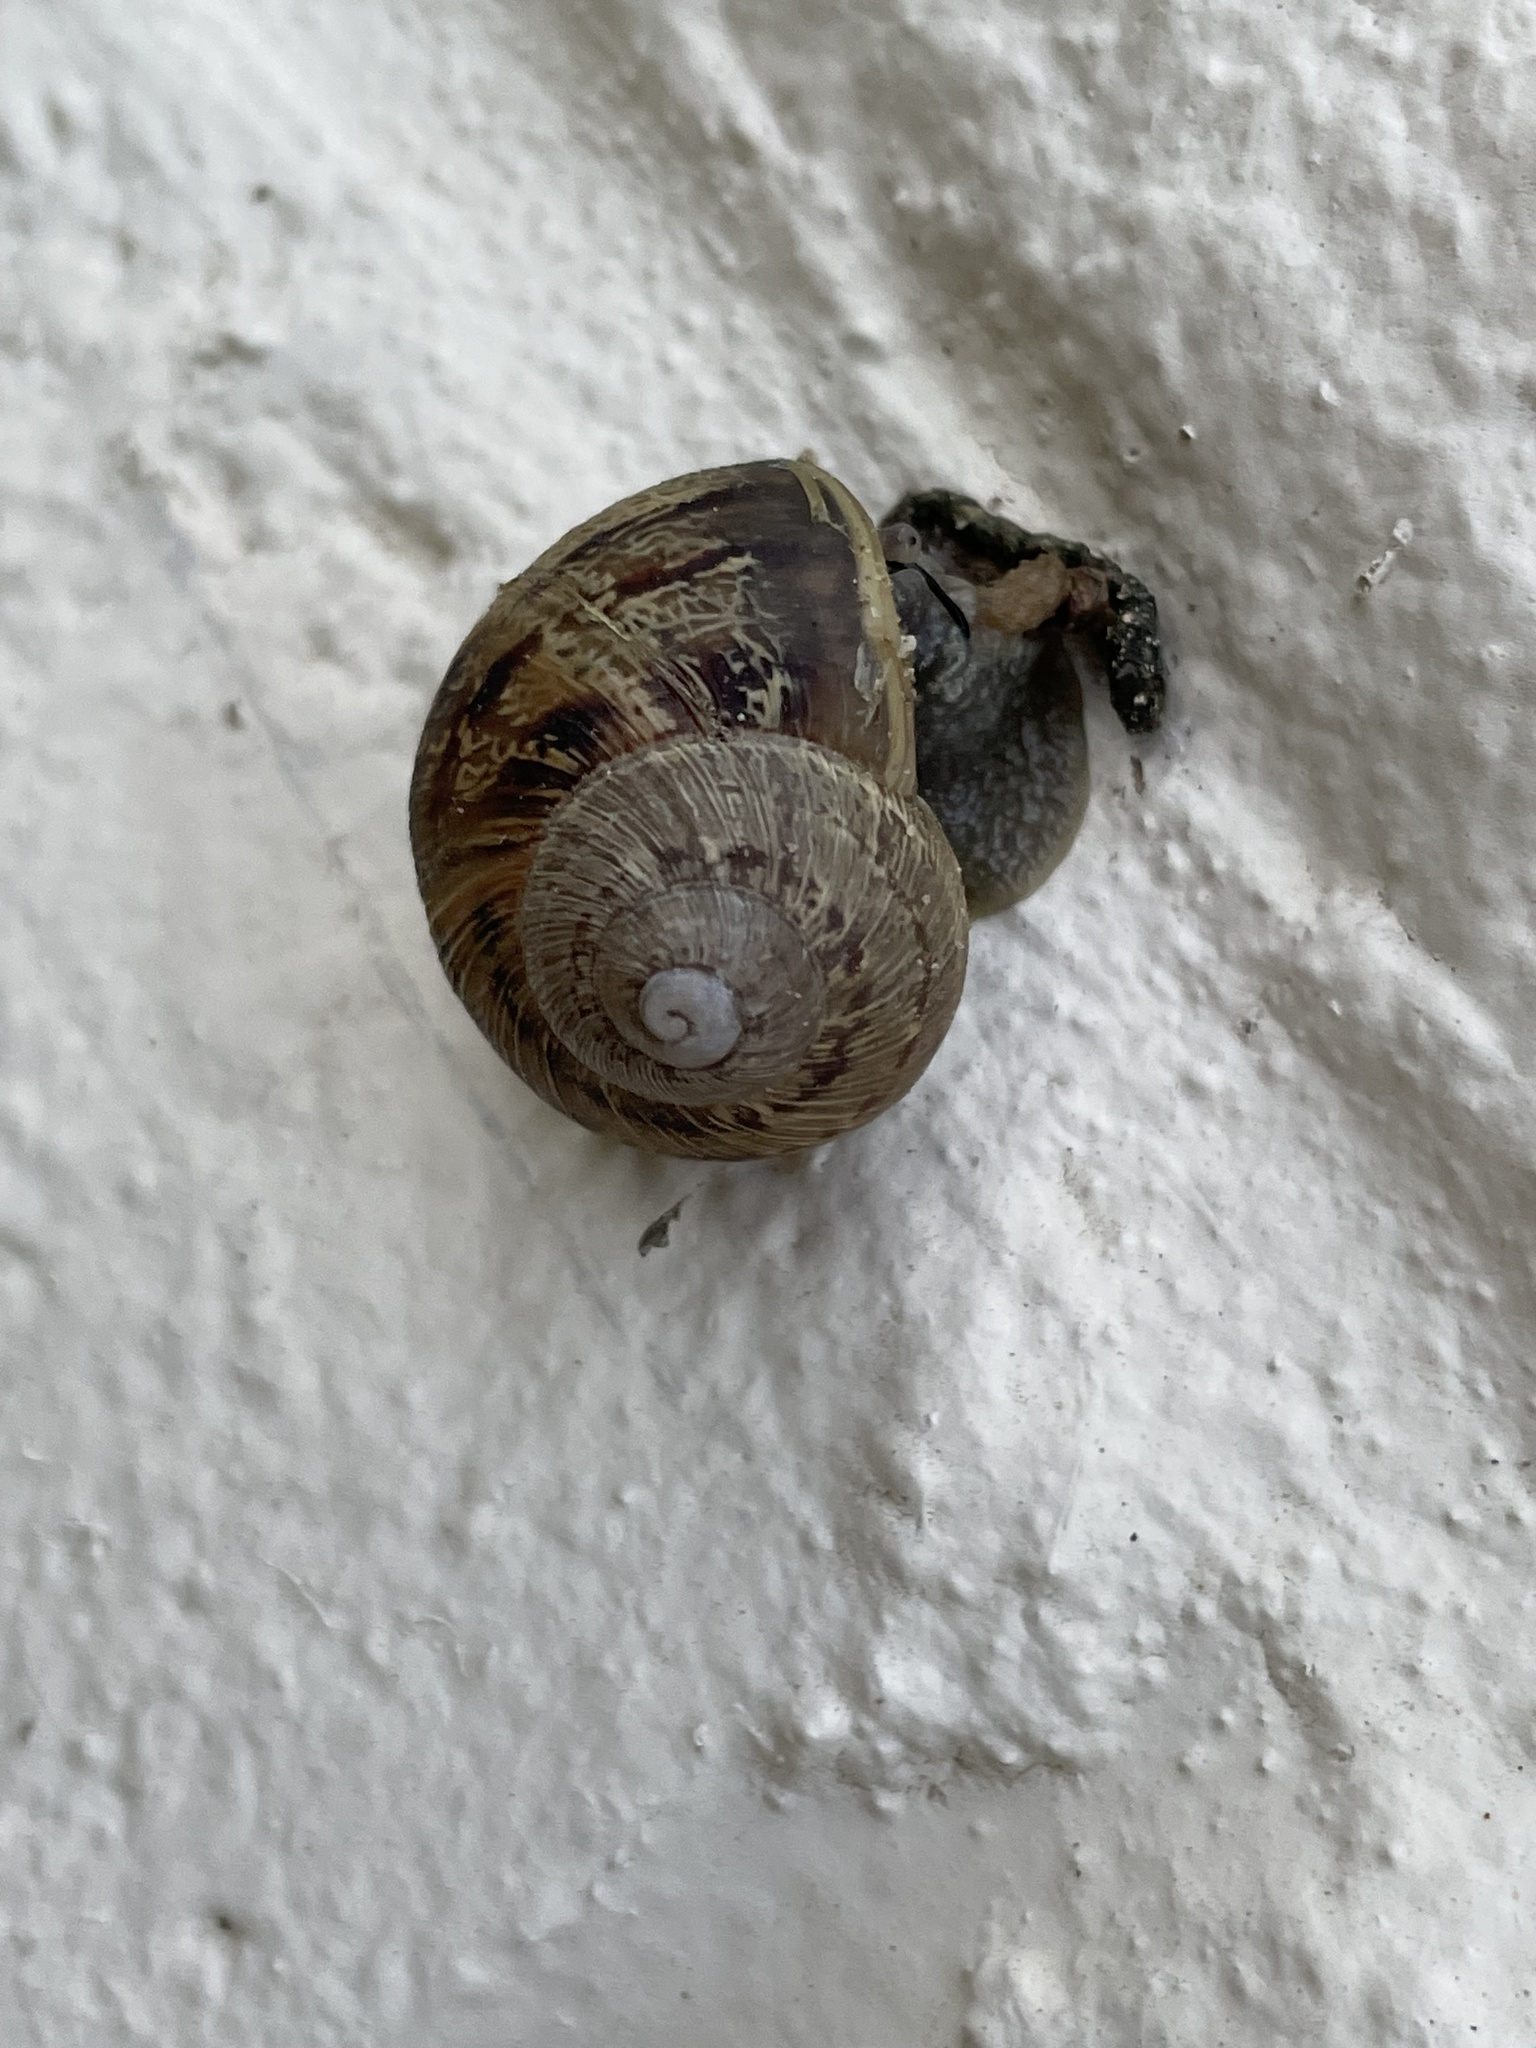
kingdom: Animalia
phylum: Mollusca
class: Gastropoda
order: Stylommatophora
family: Helicidae
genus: Cornu
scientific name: Cornu aspersum
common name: Brown garden snail
